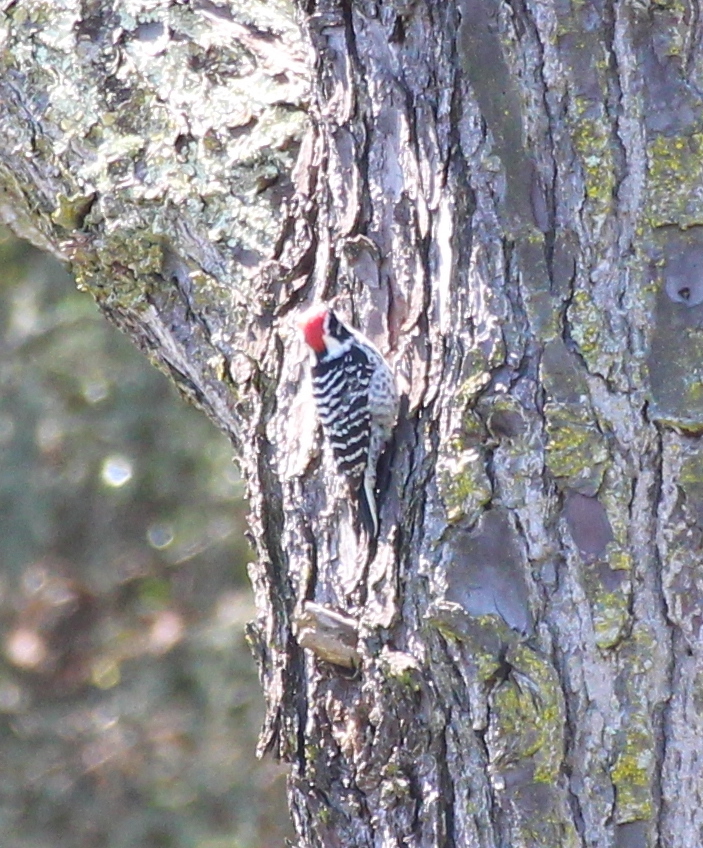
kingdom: Animalia
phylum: Chordata
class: Aves
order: Piciformes
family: Picidae
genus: Dryobates
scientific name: Dryobates nuttallii
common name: Nuttall's woodpecker
